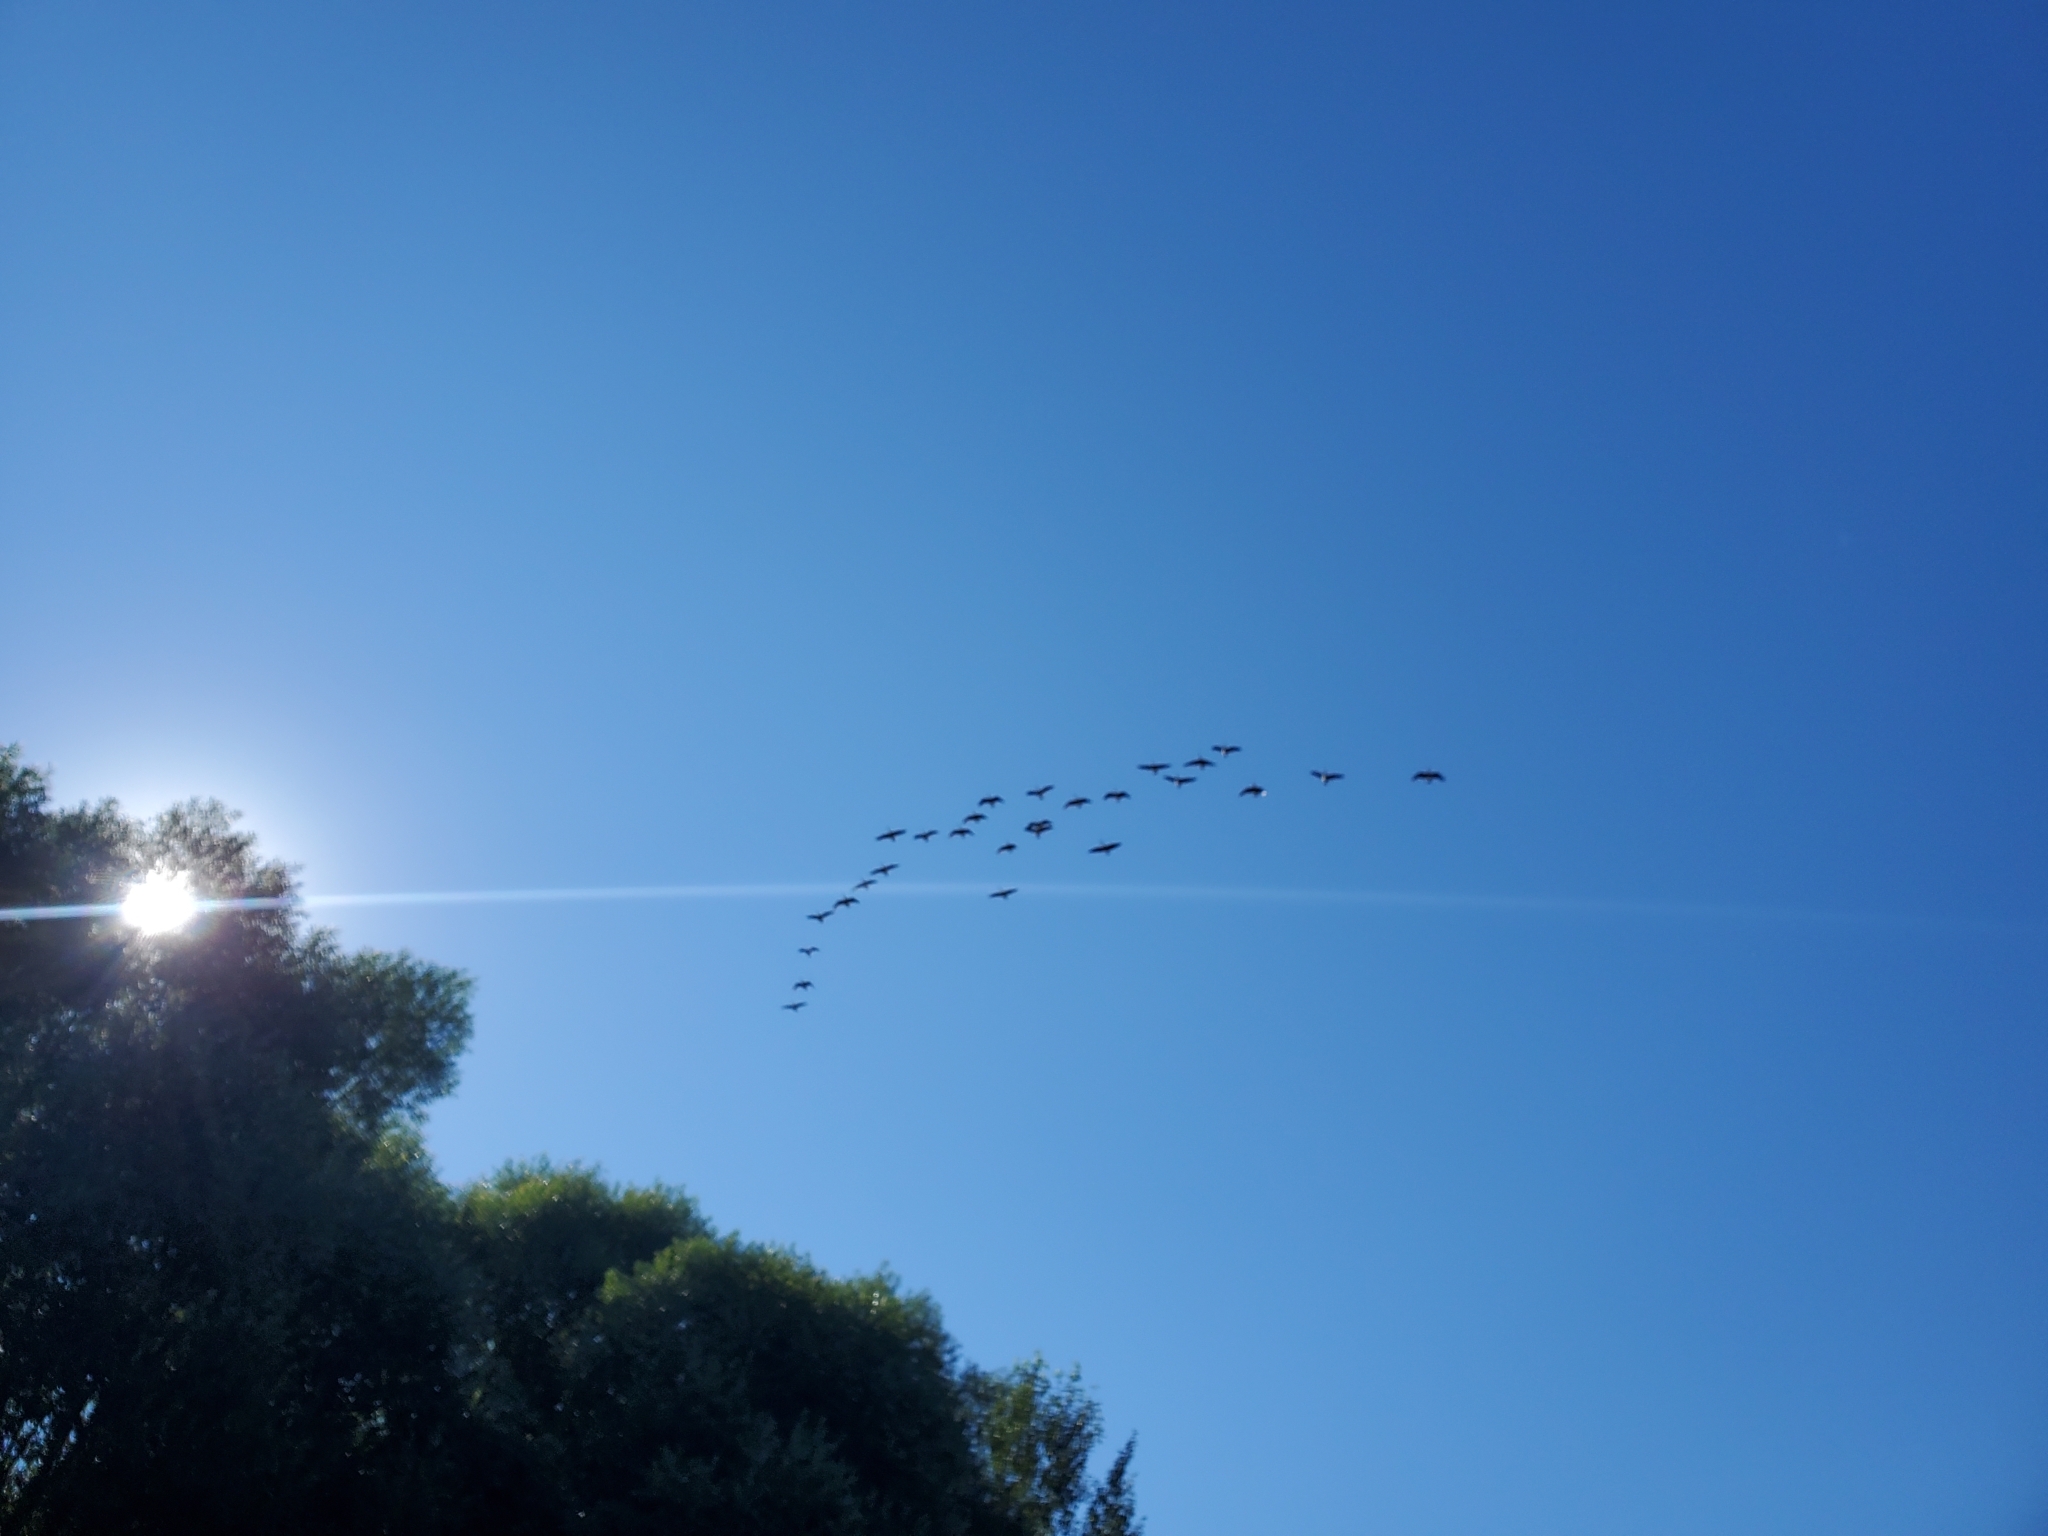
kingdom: Animalia
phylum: Chordata
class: Aves
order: Anseriformes
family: Anatidae
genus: Branta
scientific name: Branta canadensis
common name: Canada goose
